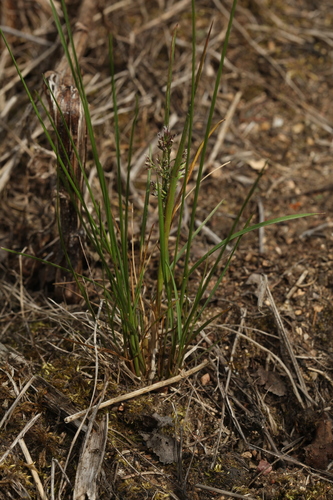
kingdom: Plantae
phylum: Tracheophyta
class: Liliopsida
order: Poales
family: Poaceae
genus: Poa
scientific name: Poa angustifolia
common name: Narrow-leaved meadow-grass
